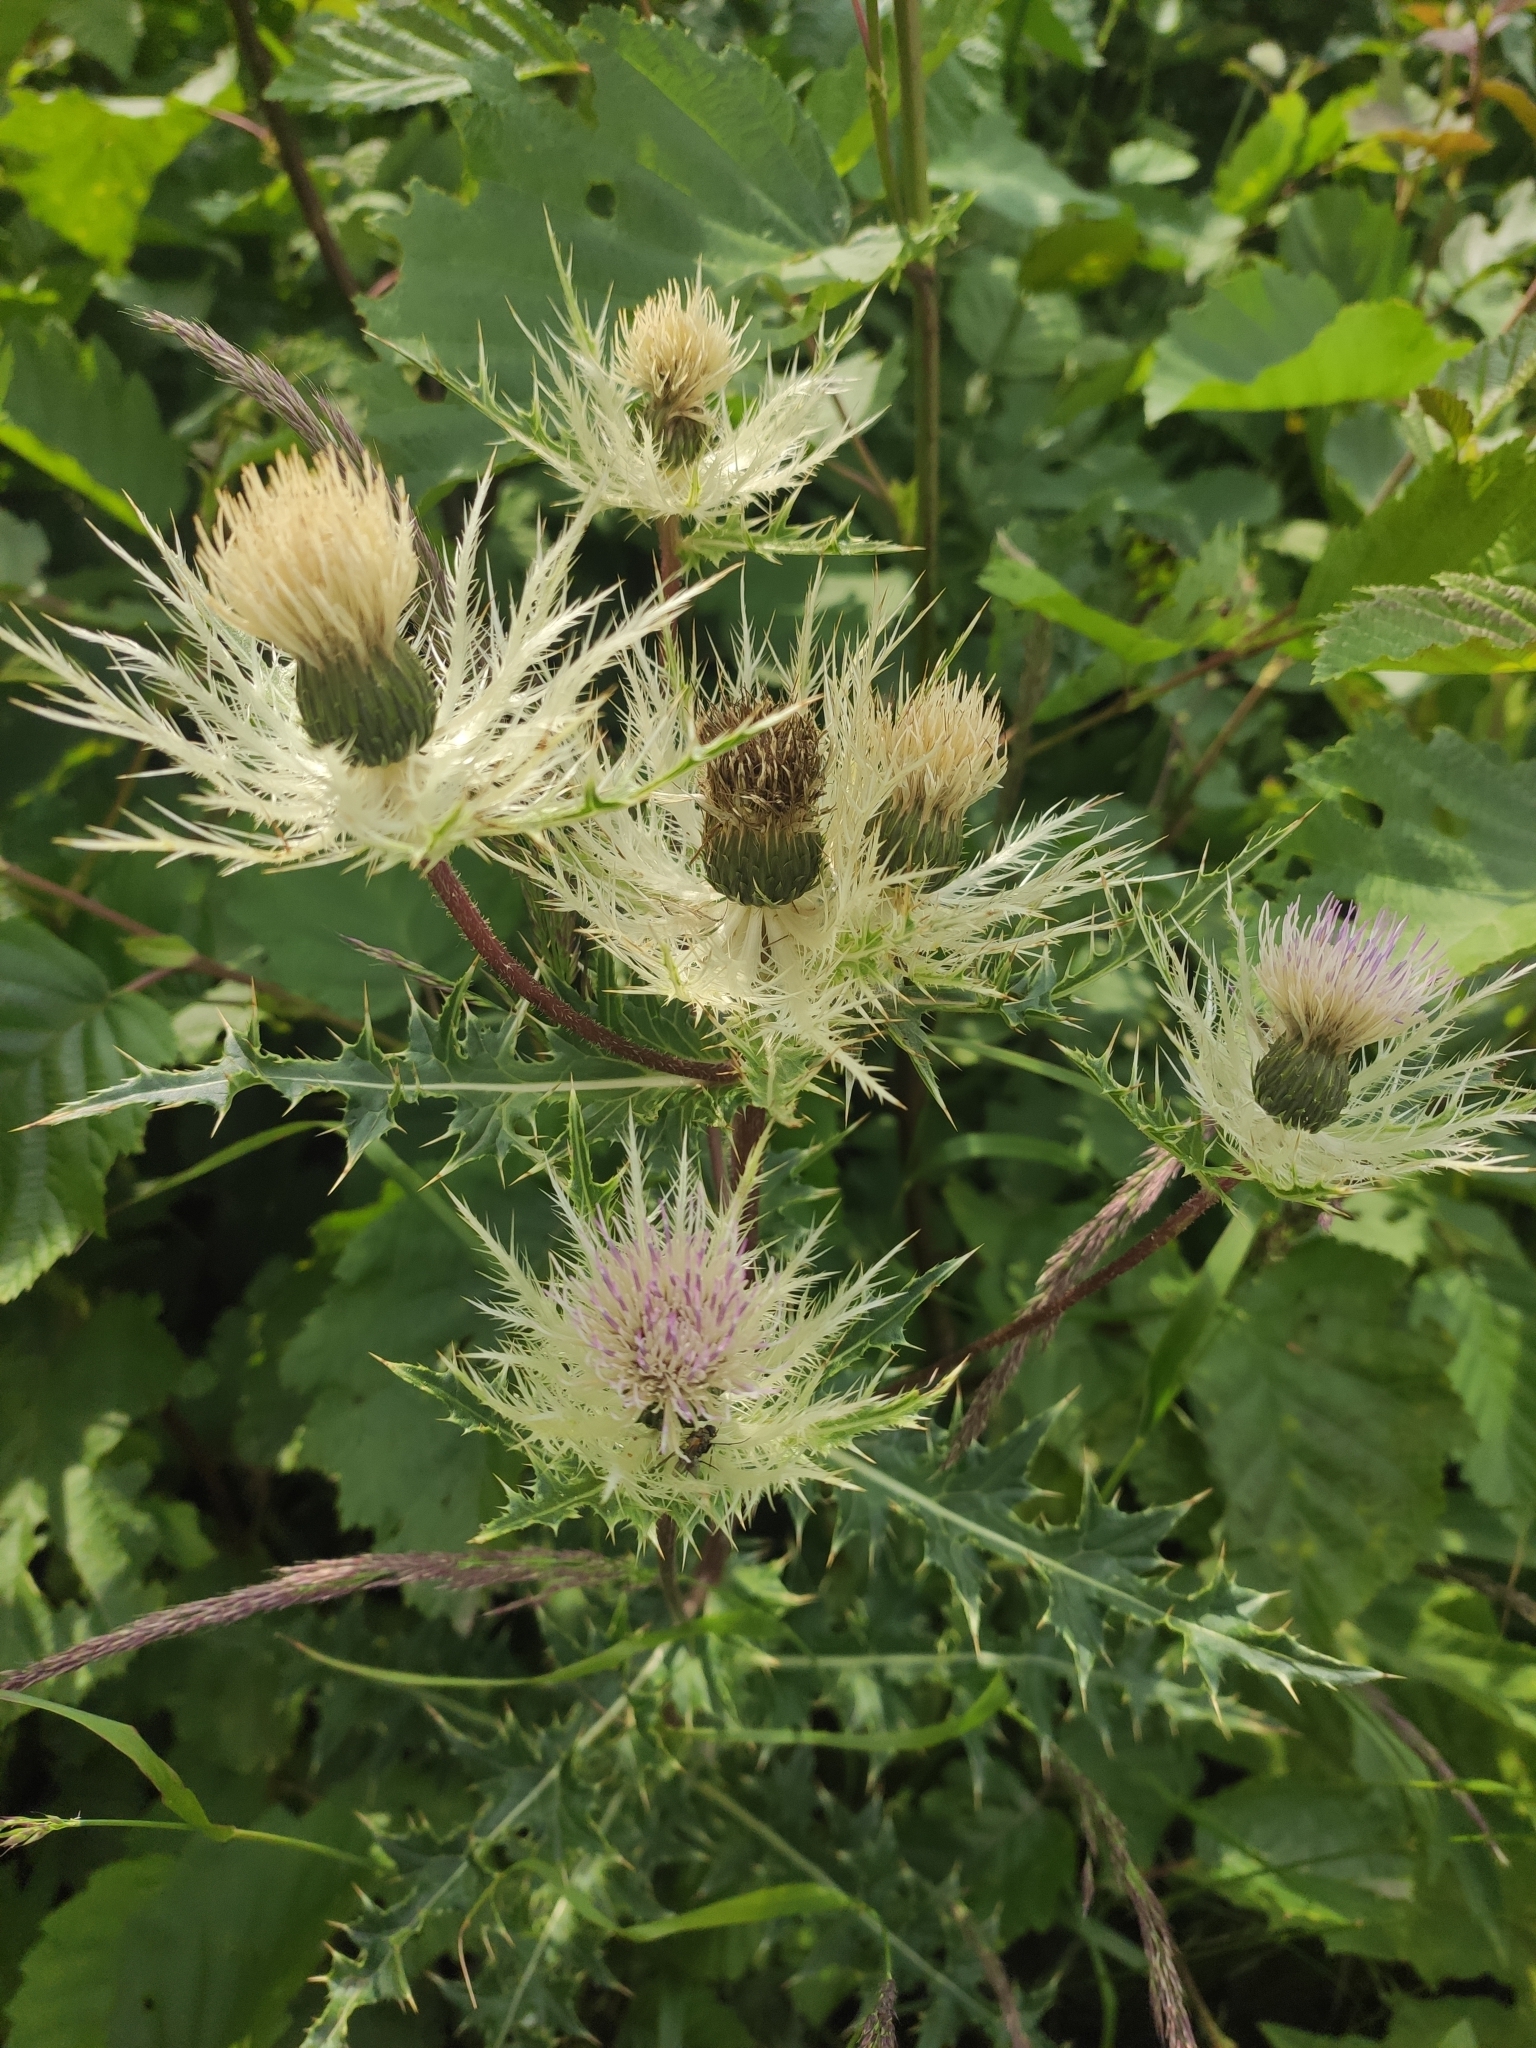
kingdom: Plantae
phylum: Tracheophyta
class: Magnoliopsida
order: Asterales
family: Asteraceae
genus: Cirsium
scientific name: Cirsium obvallatum
